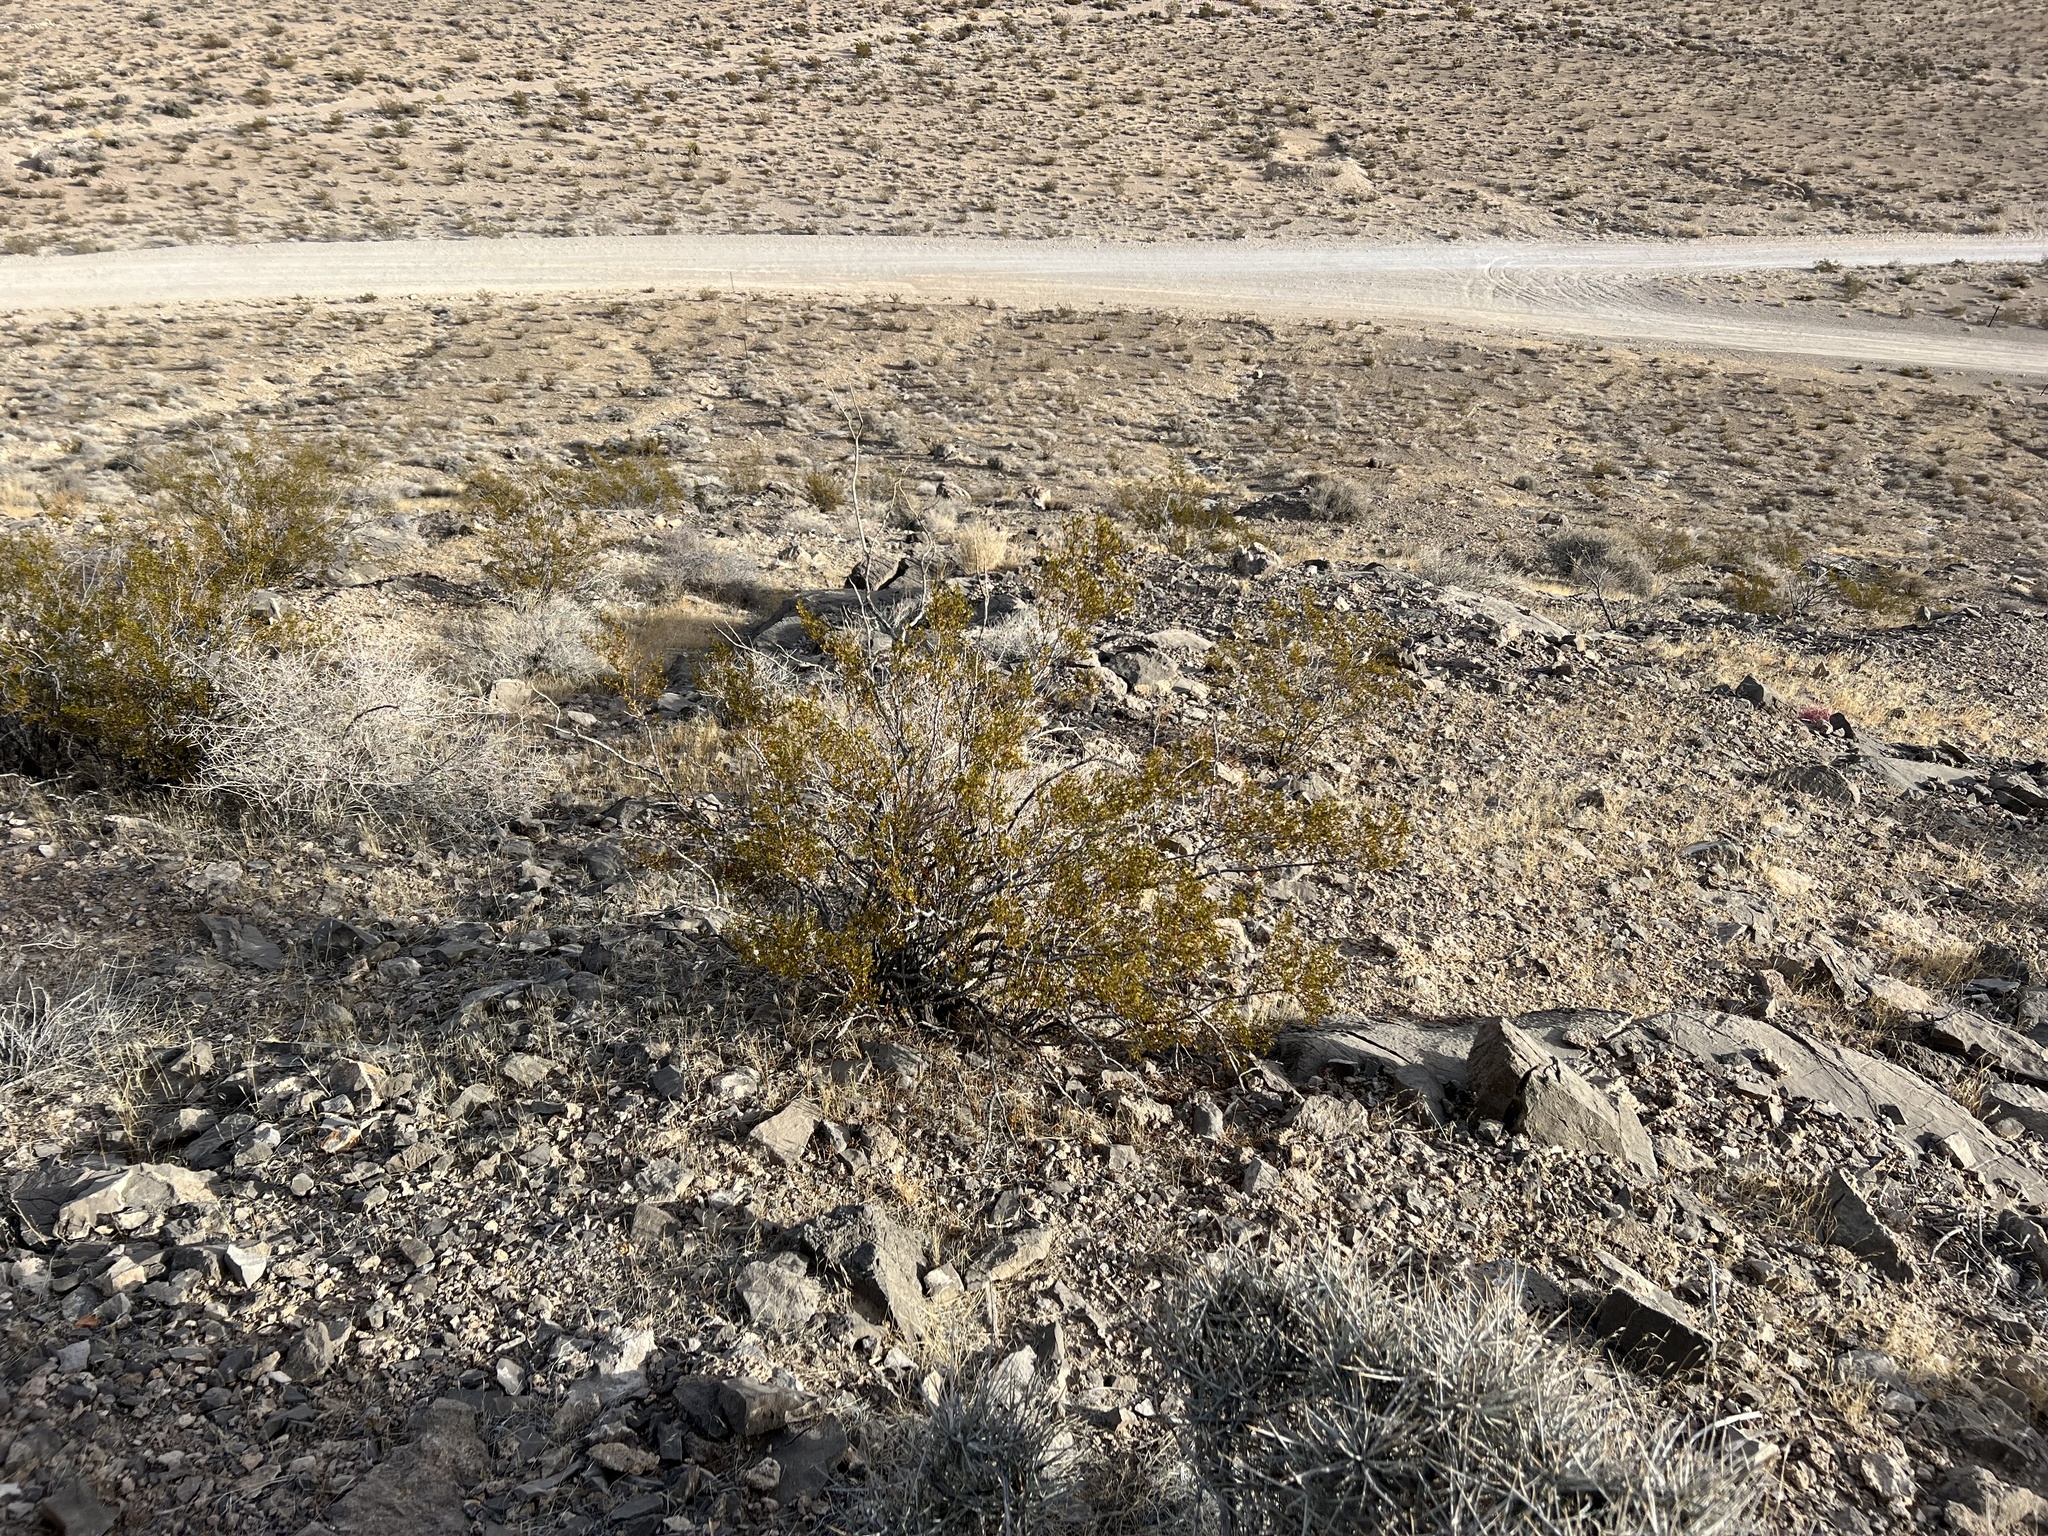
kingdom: Plantae
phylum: Tracheophyta
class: Magnoliopsida
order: Zygophyllales
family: Zygophyllaceae
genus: Larrea
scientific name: Larrea tridentata
